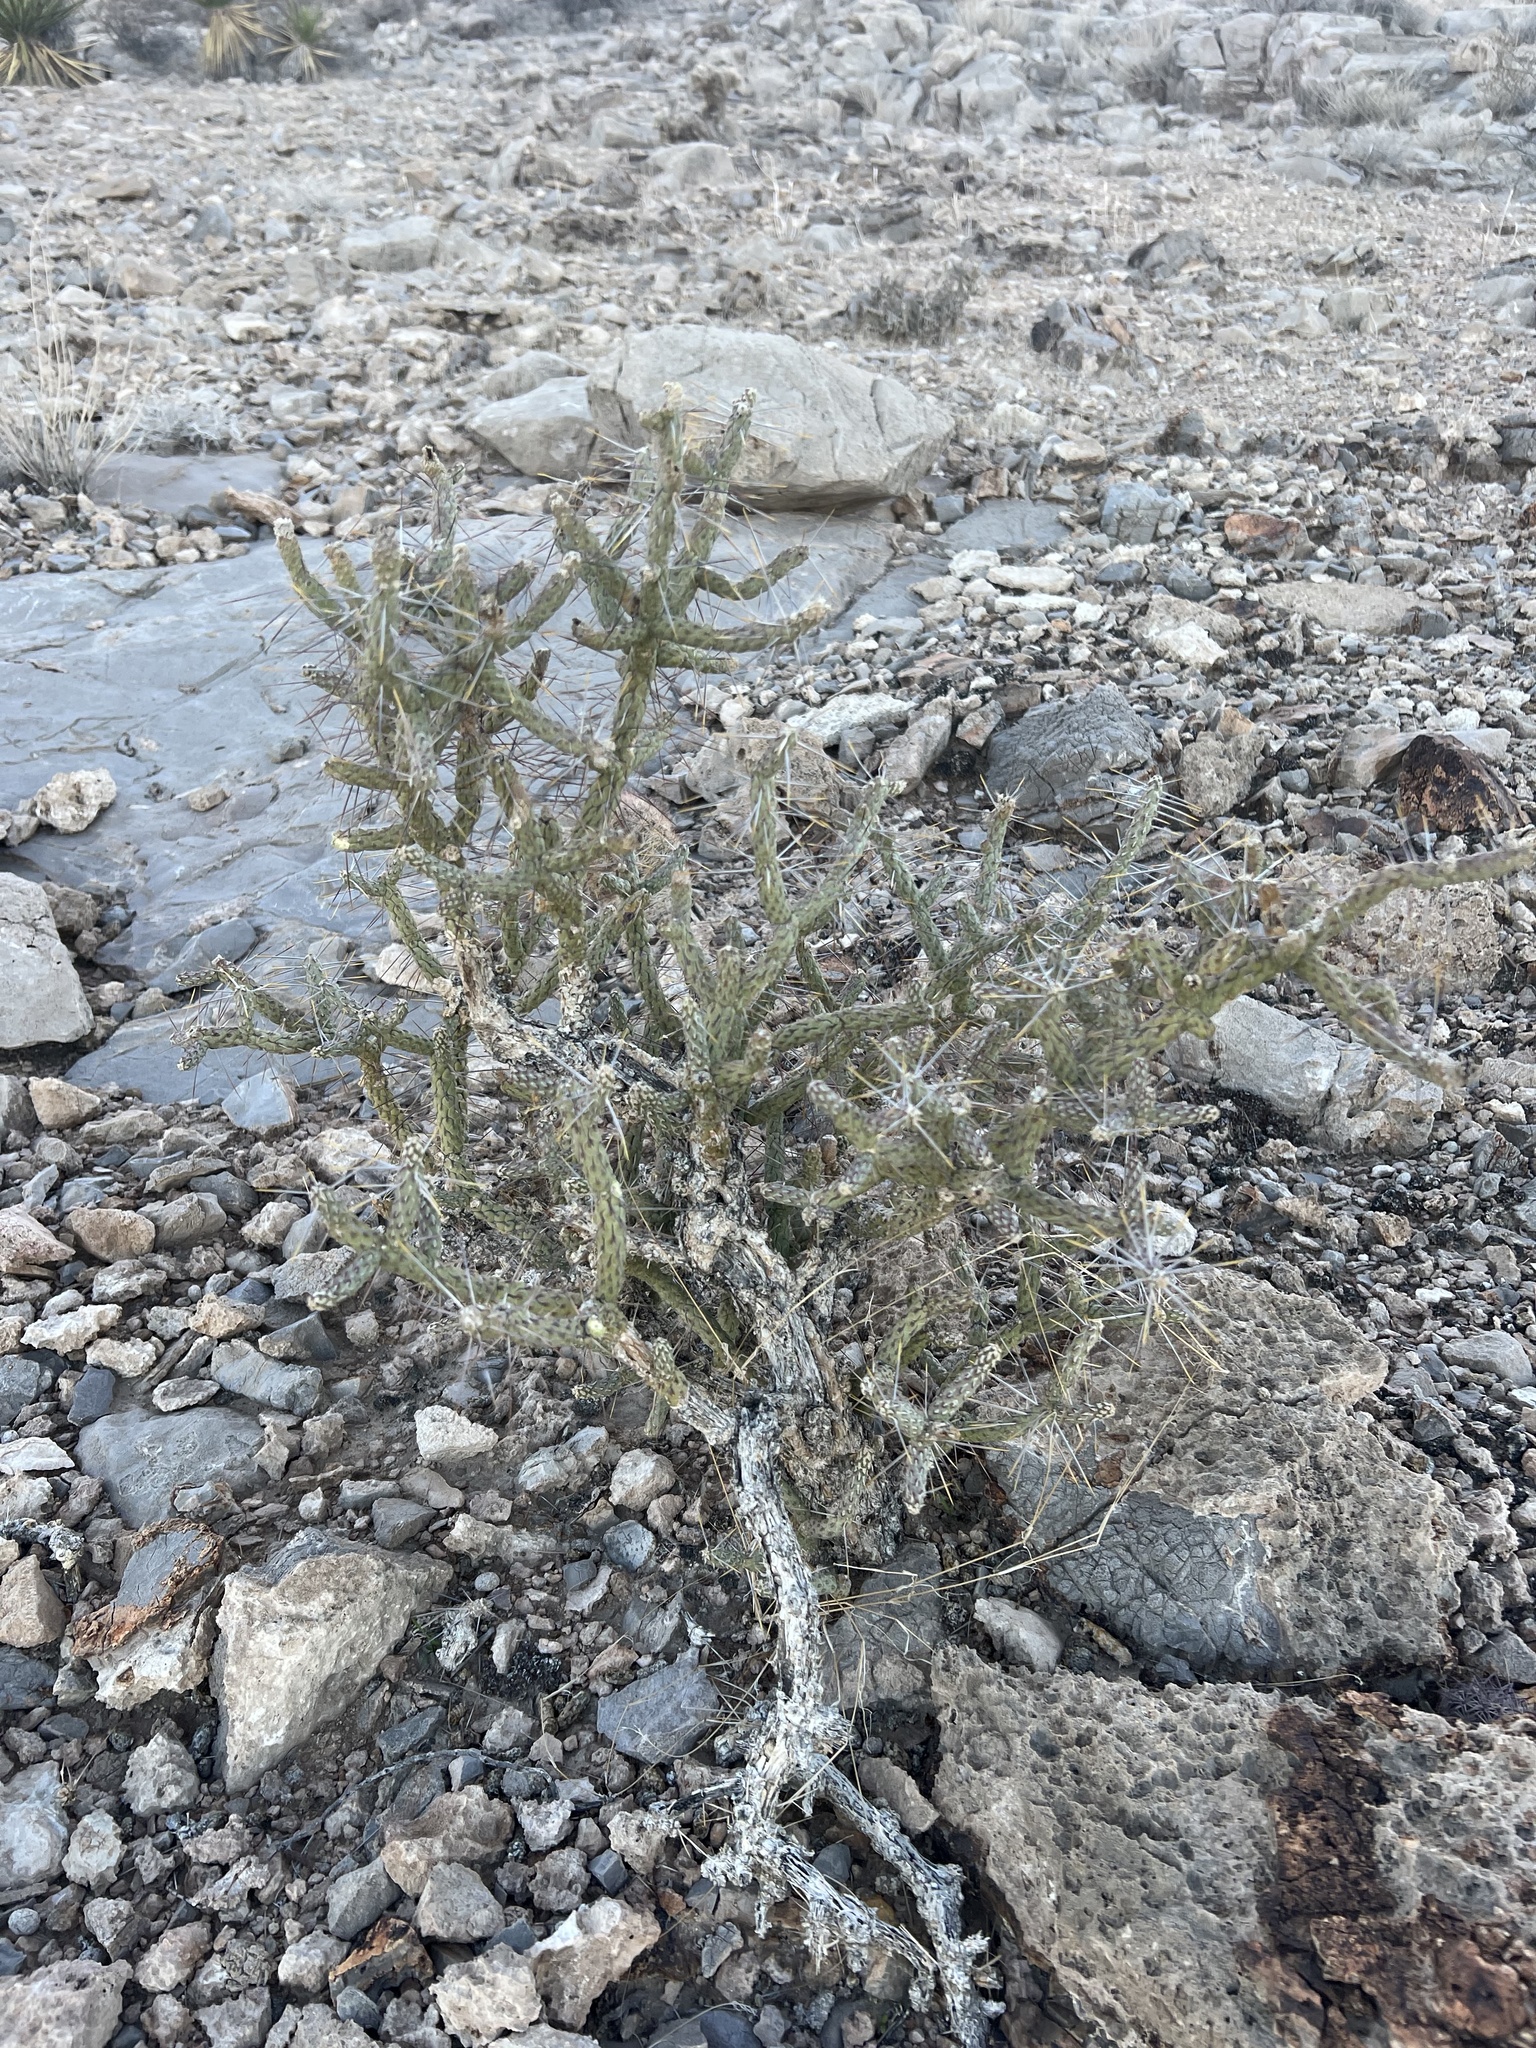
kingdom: Plantae
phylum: Tracheophyta
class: Magnoliopsida
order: Caryophyllales
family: Cactaceae
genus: Cylindropuntia
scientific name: Cylindropuntia ramosissima
